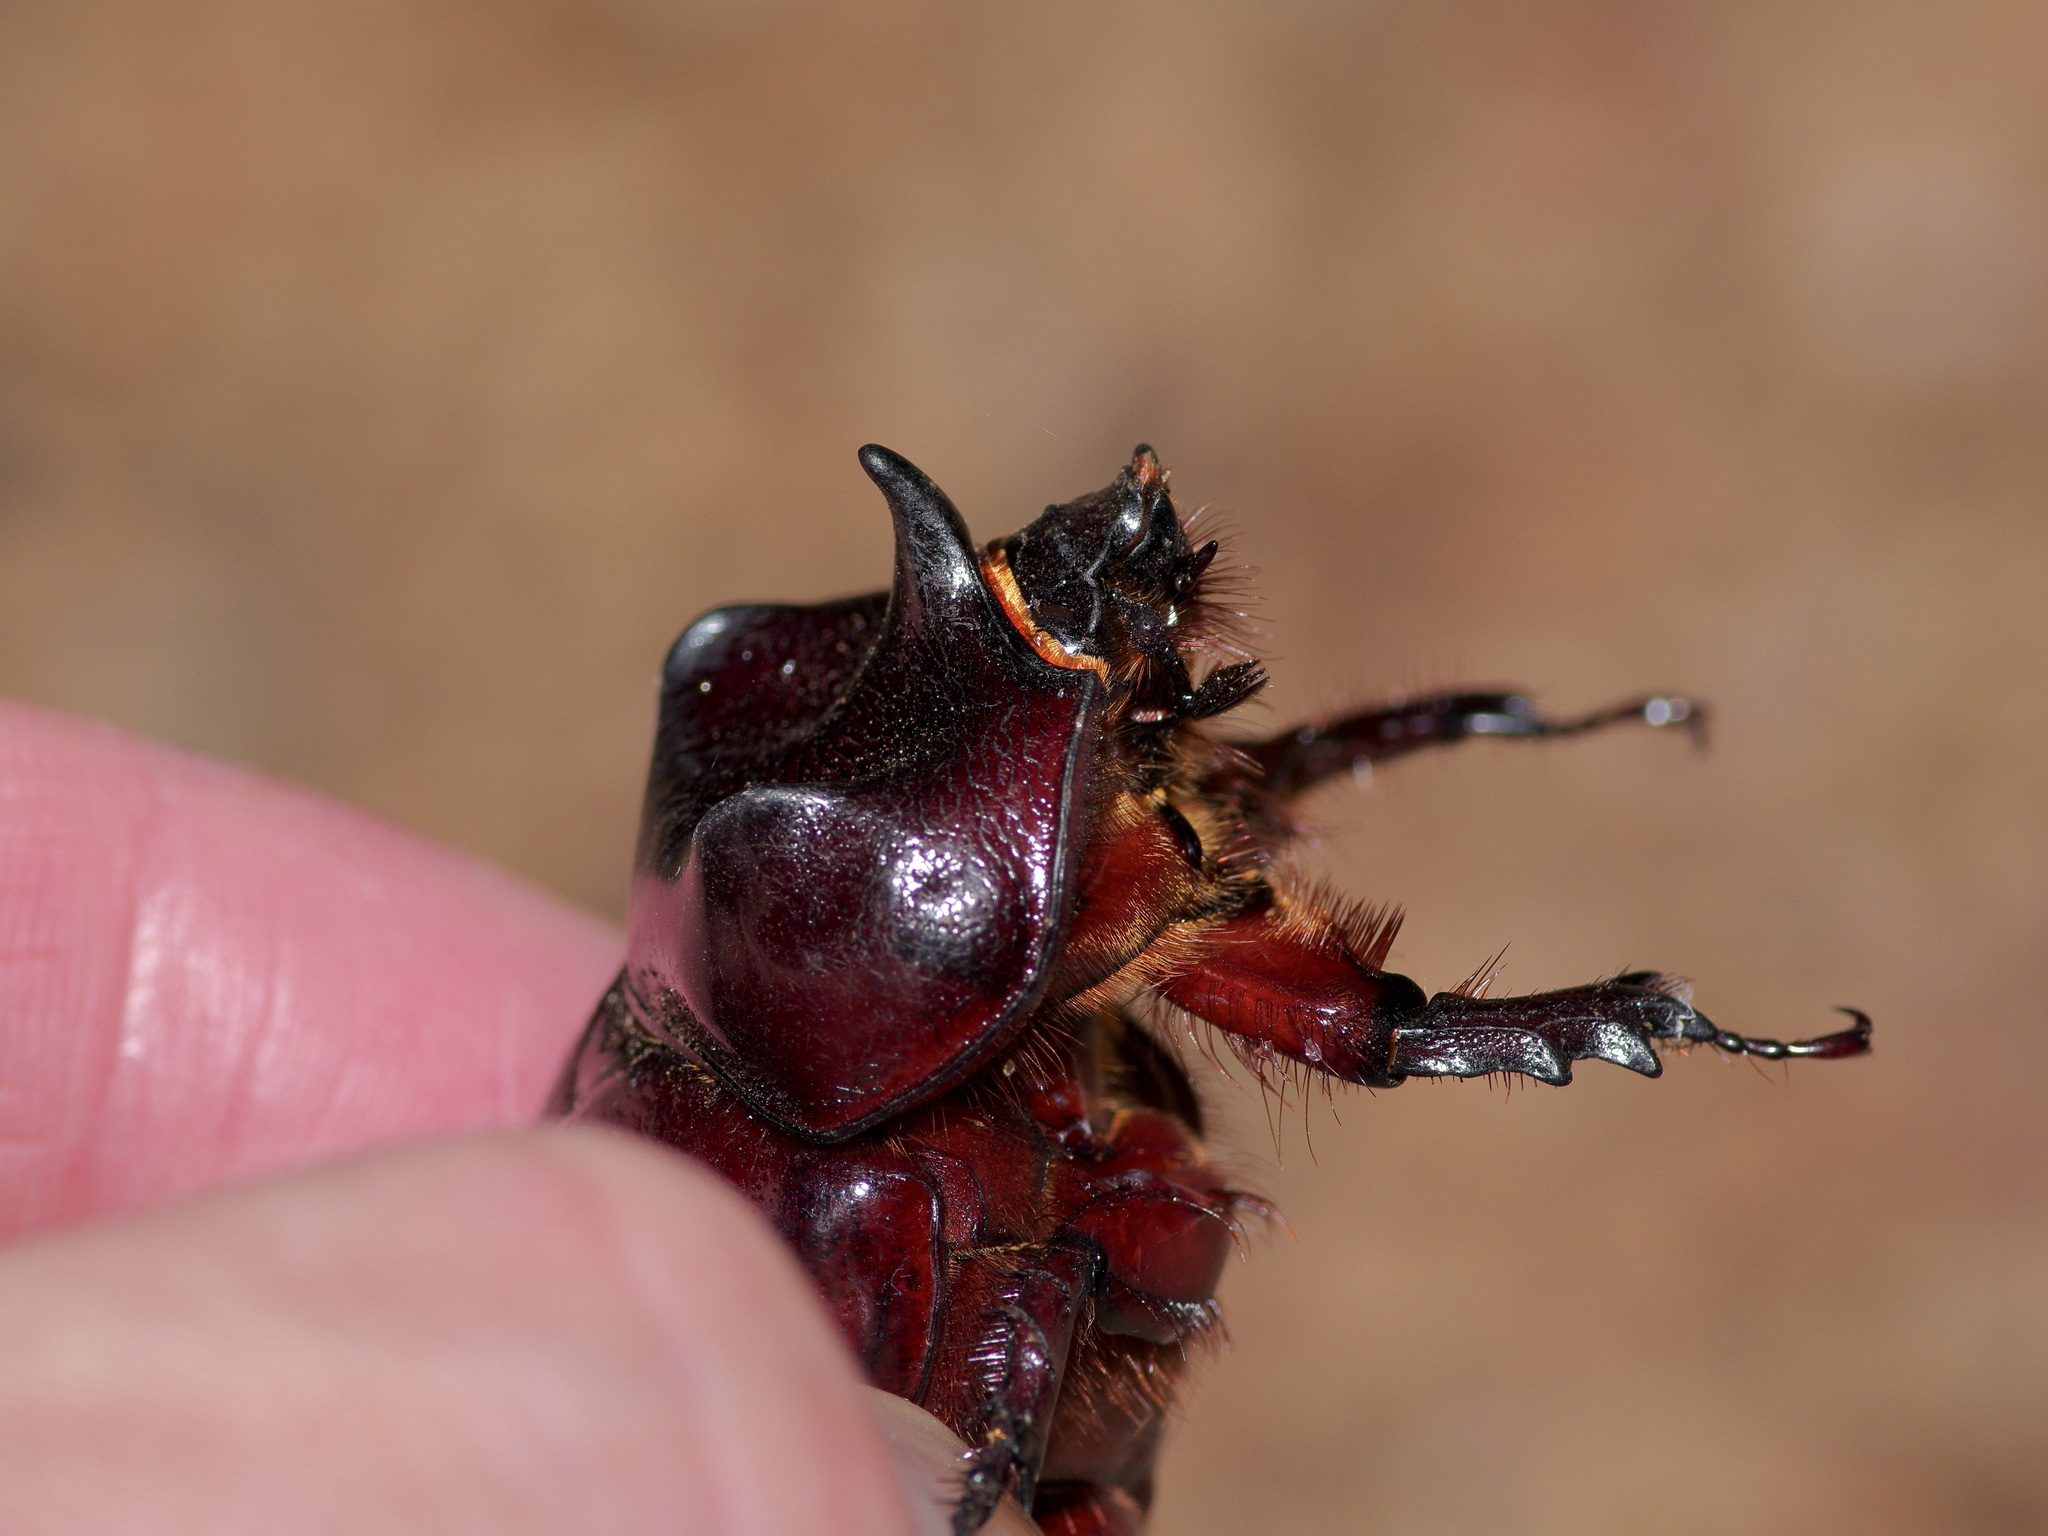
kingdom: Animalia
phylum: Arthropoda
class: Insecta
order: Coleoptera
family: Scarabaeidae
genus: Strategus
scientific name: Strategus aloeus
